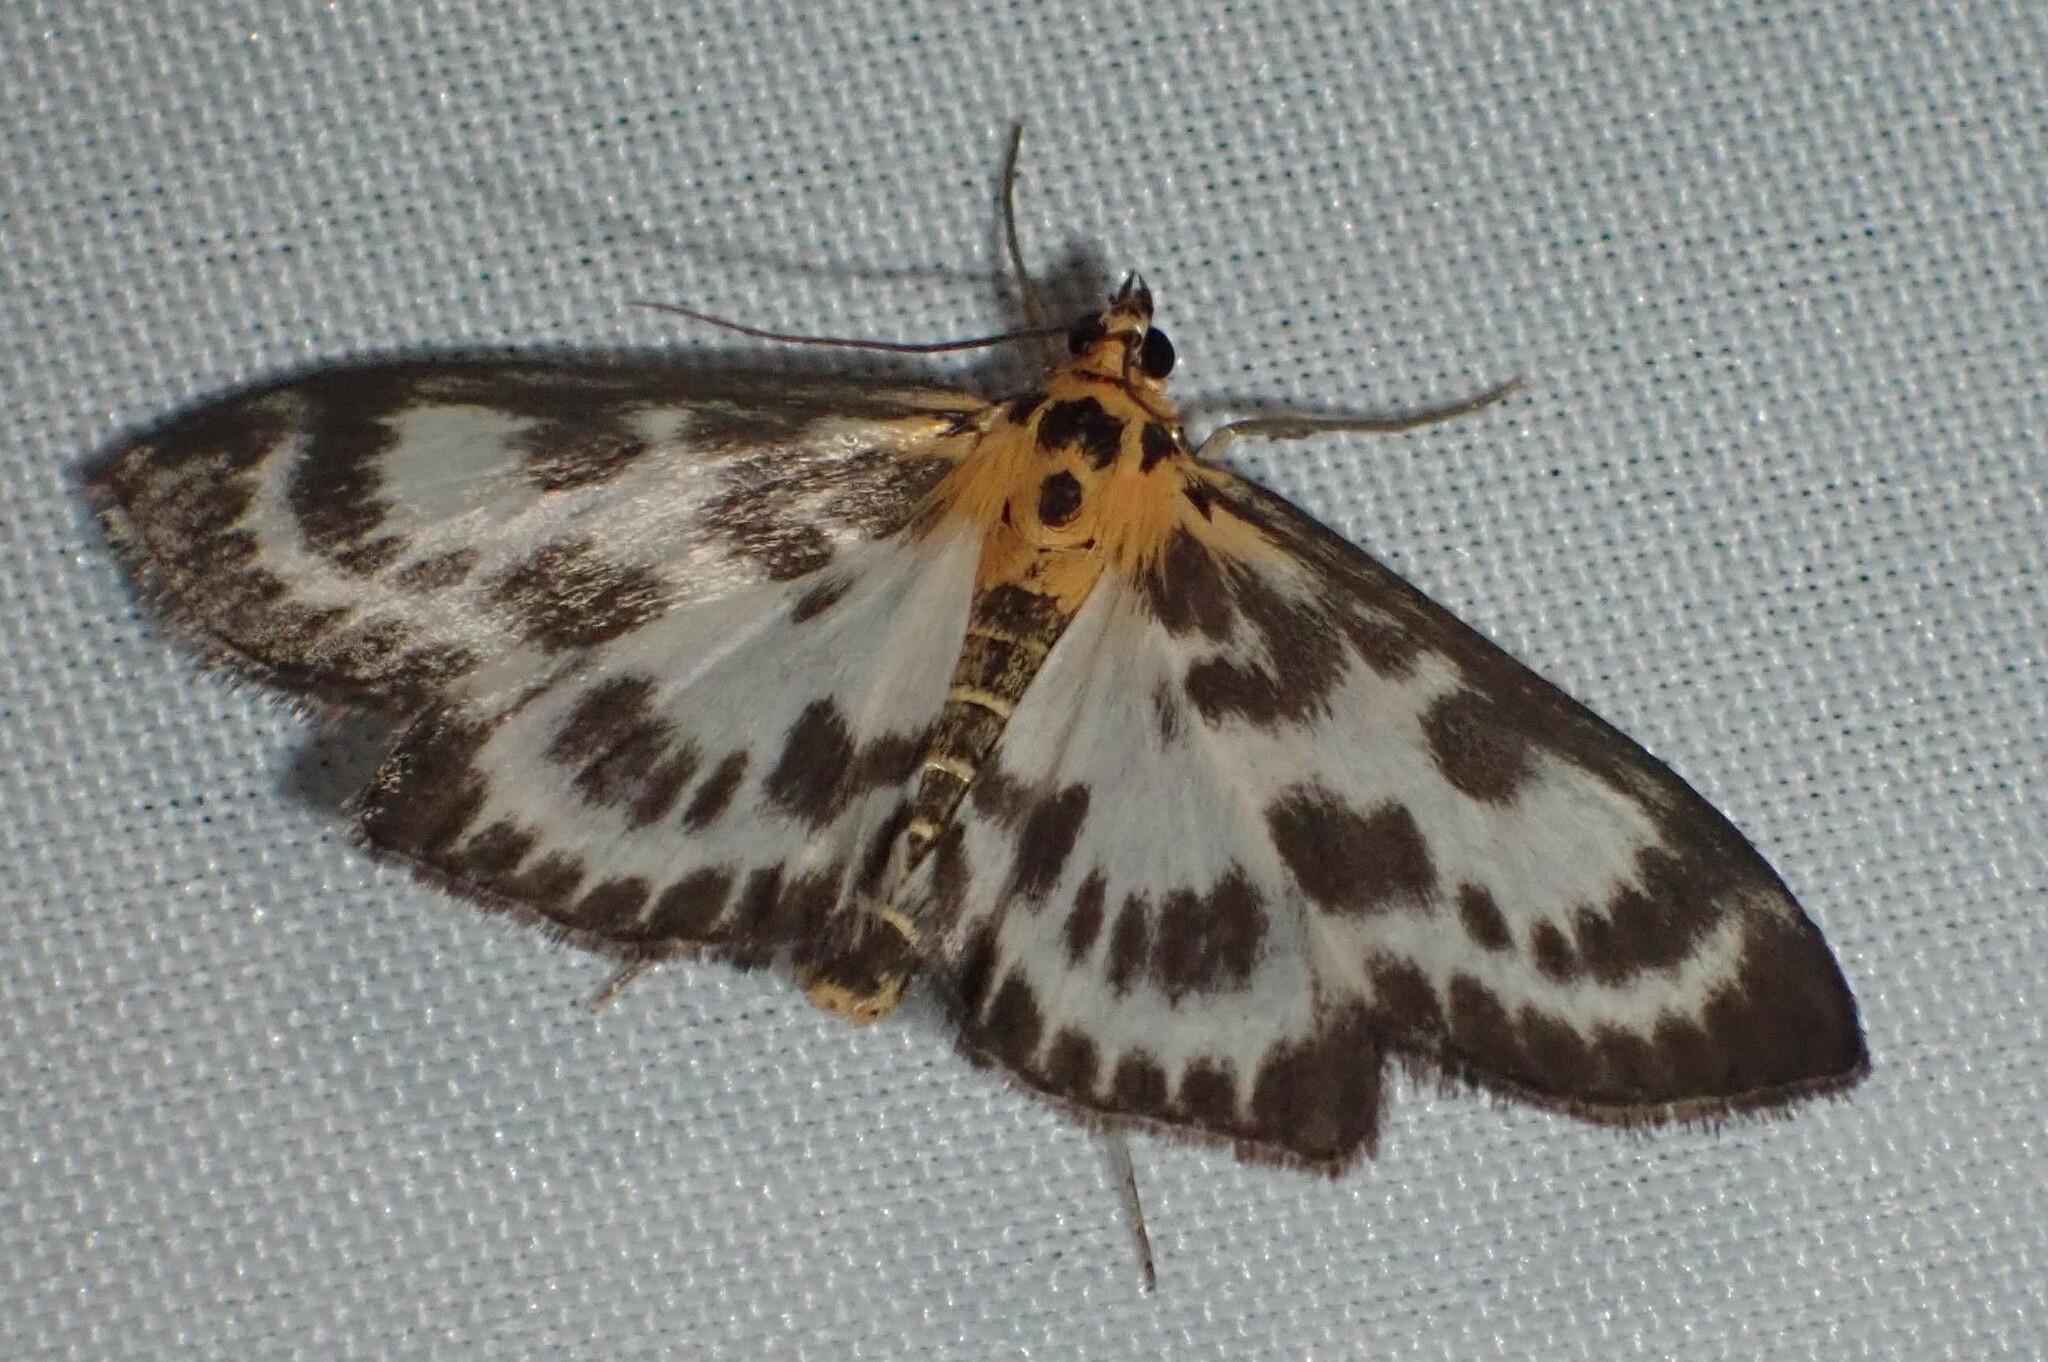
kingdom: Animalia
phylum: Arthropoda
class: Insecta
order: Lepidoptera
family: Crambidae
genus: Anania
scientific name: Anania hortulata
